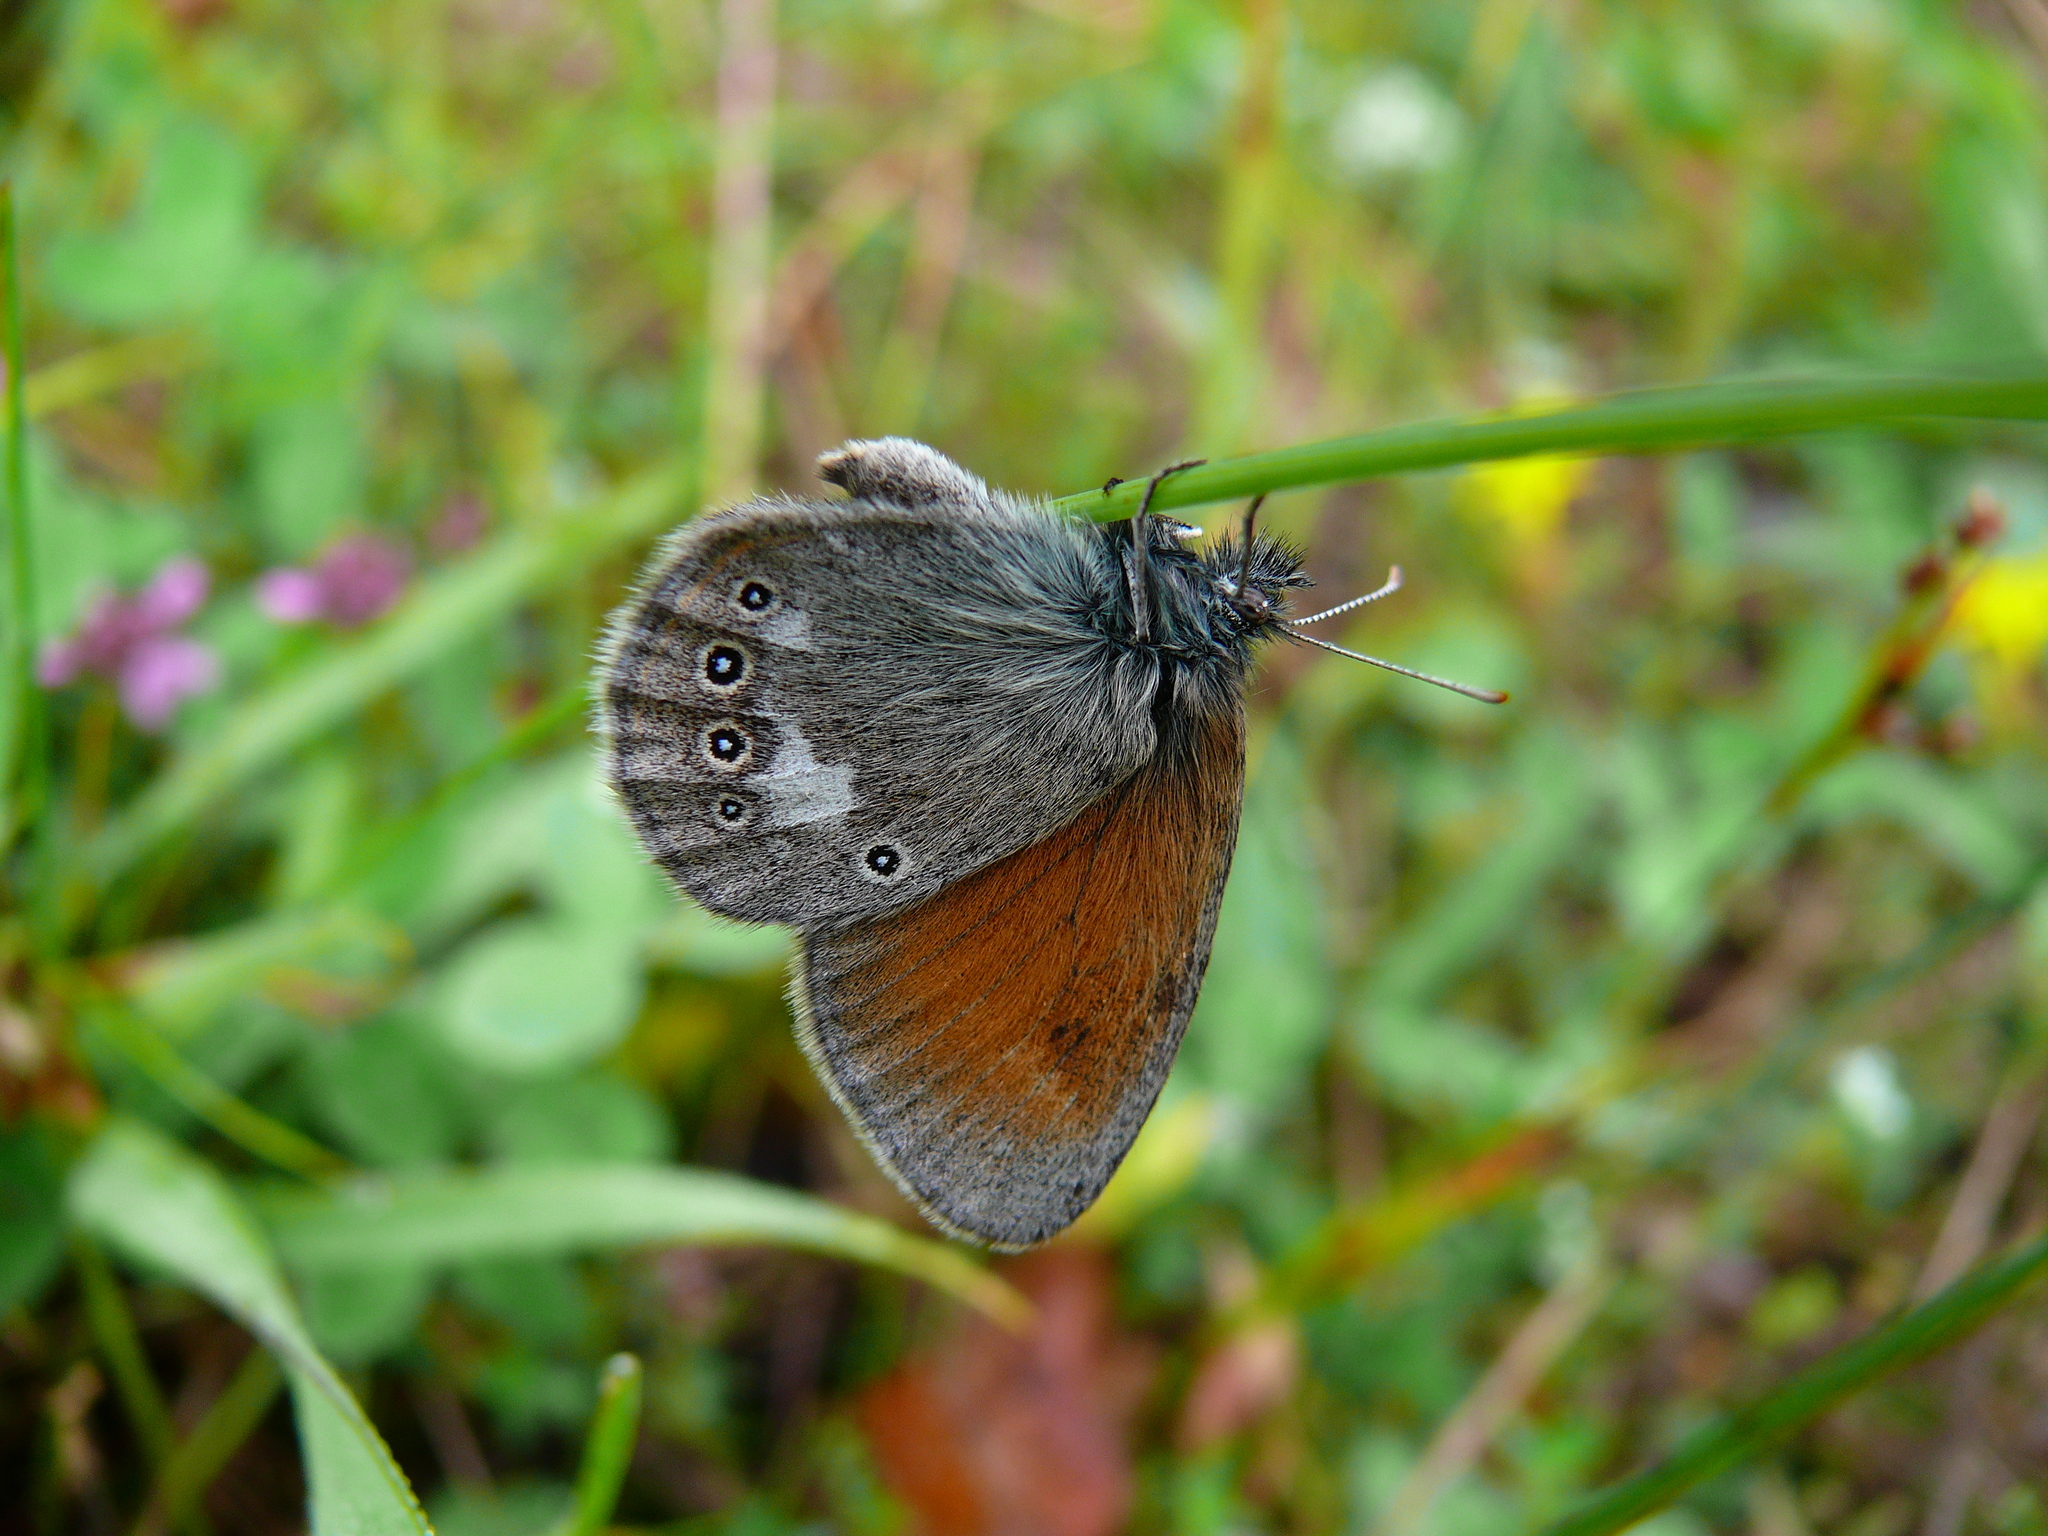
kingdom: Animalia
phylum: Arthropoda
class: Insecta
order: Lepidoptera
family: Nymphalidae
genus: Coenonympha
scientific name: Coenonympha iphis
